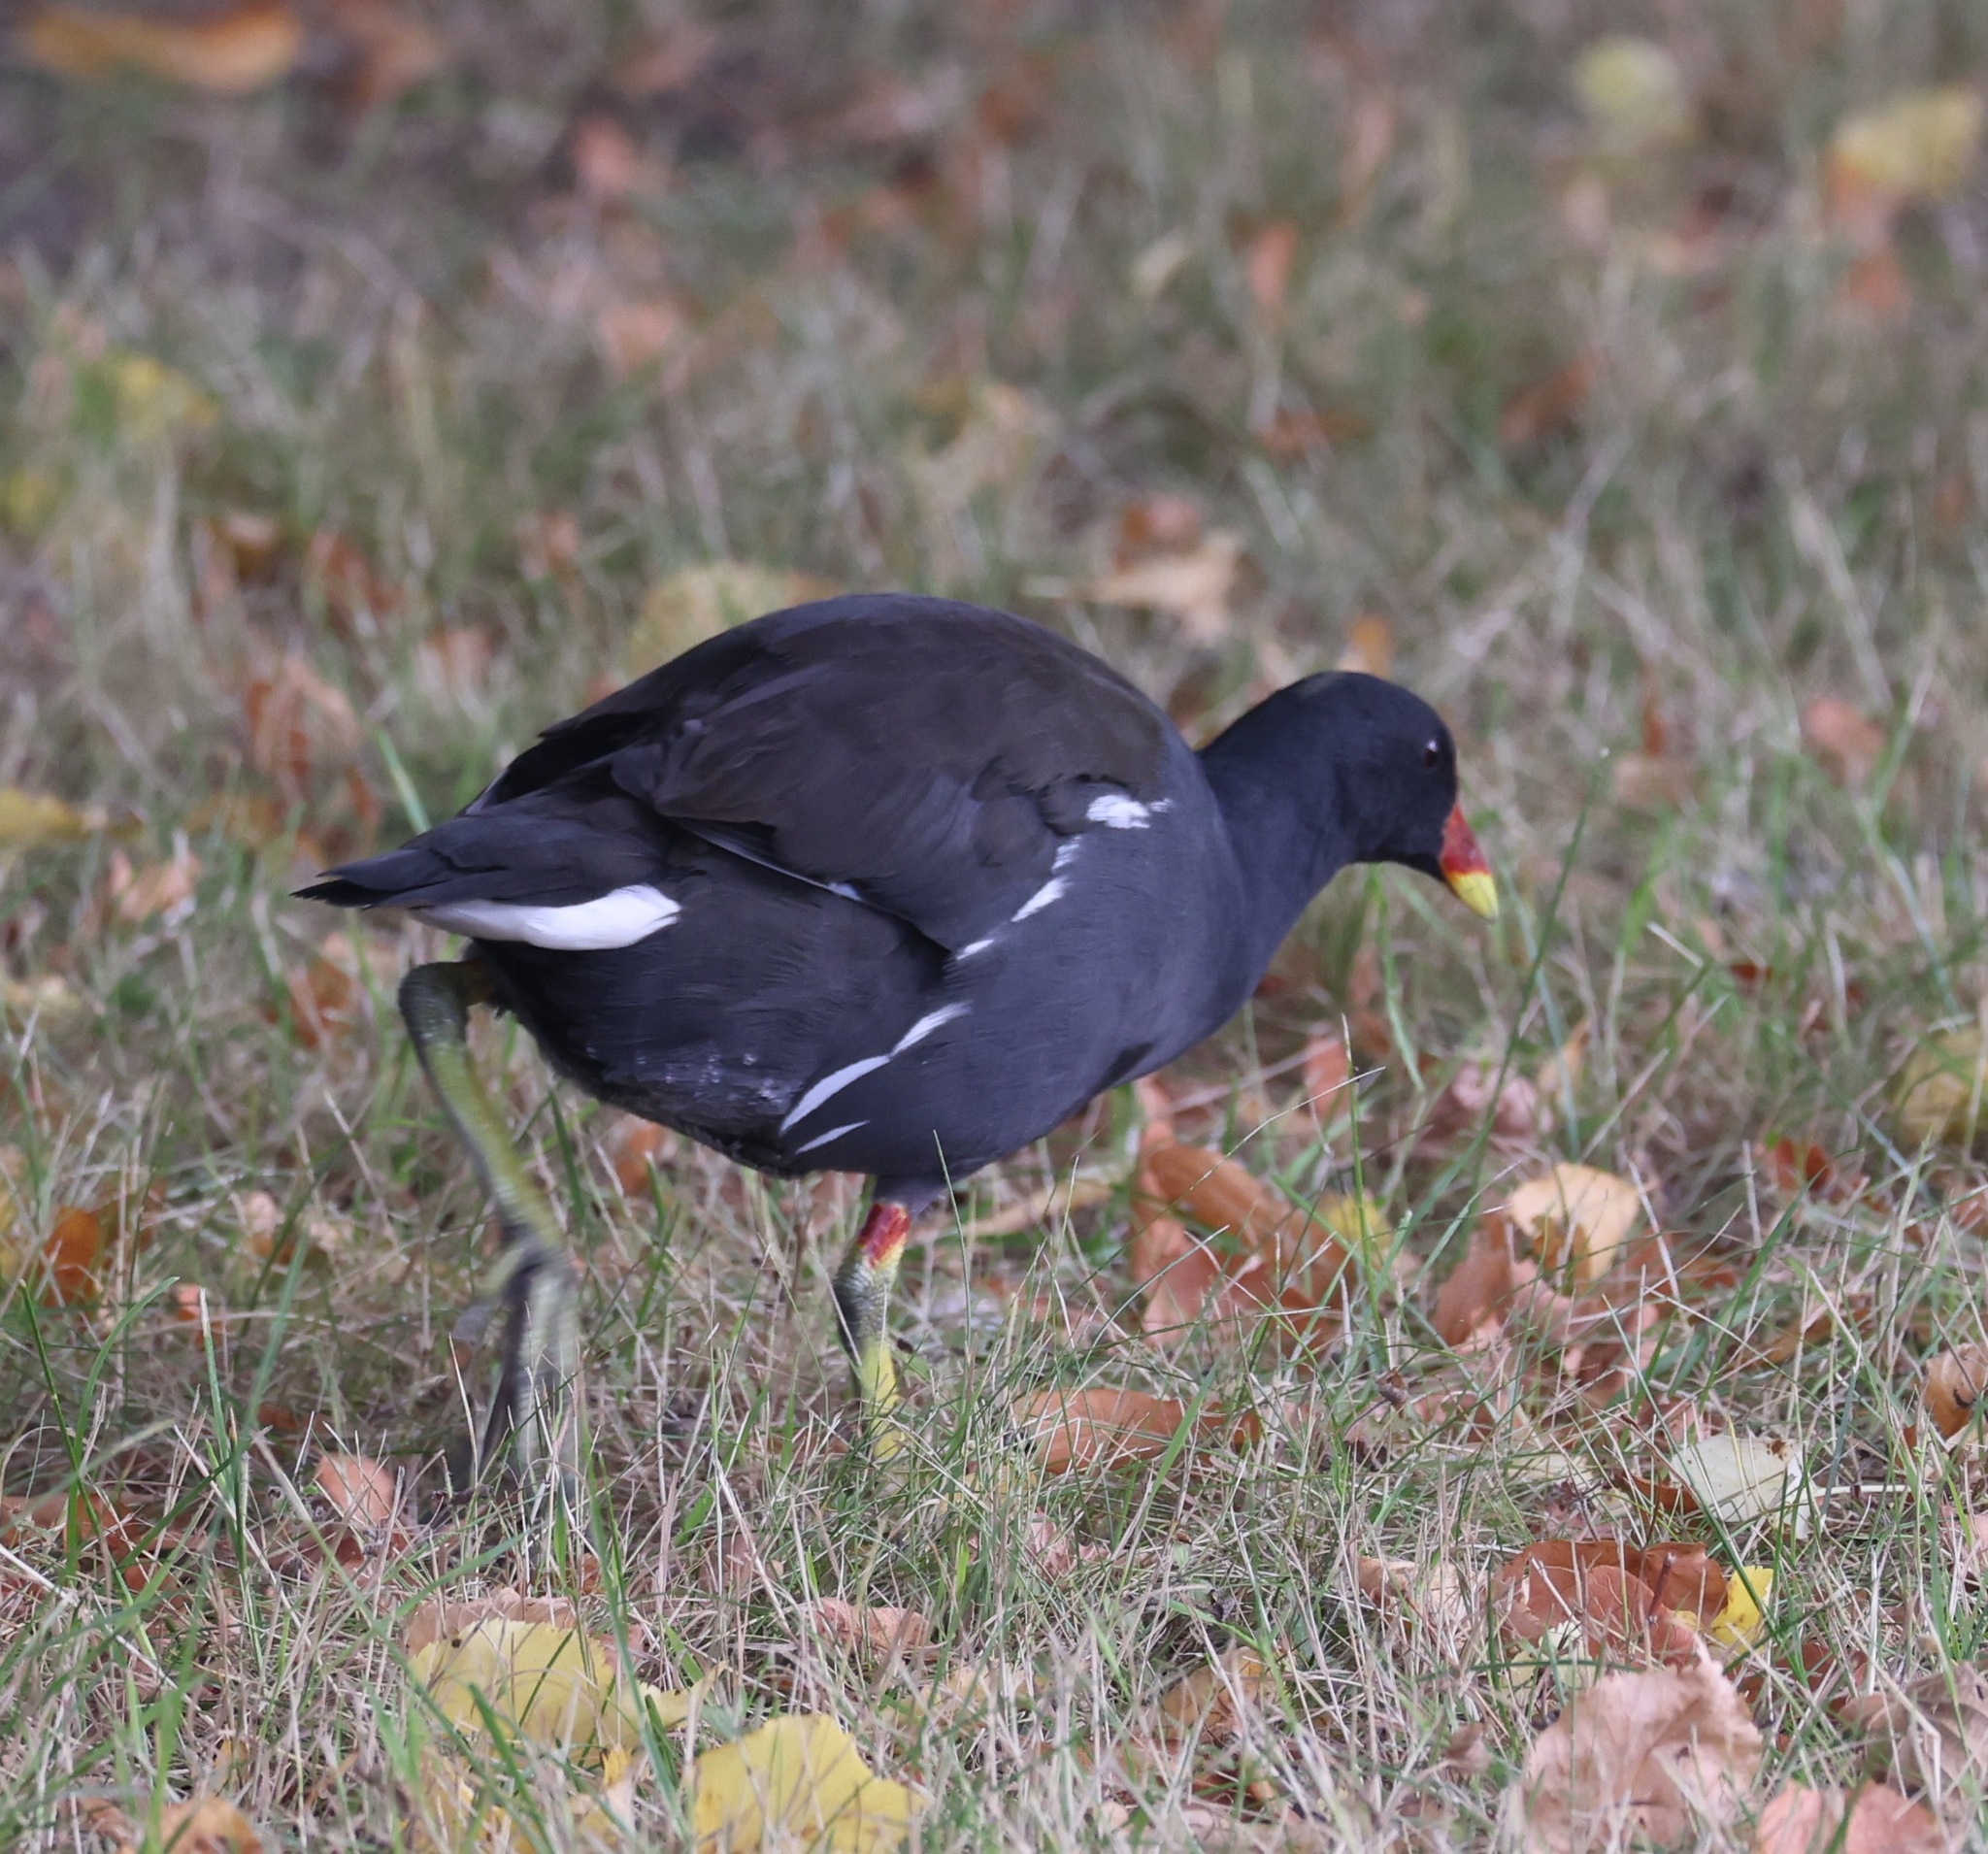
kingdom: Animalia
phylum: Chordata
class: Aves
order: Gruiformes
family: Rallidae
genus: Gallinula
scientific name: Gallinula chloropus
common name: Common moorhen
